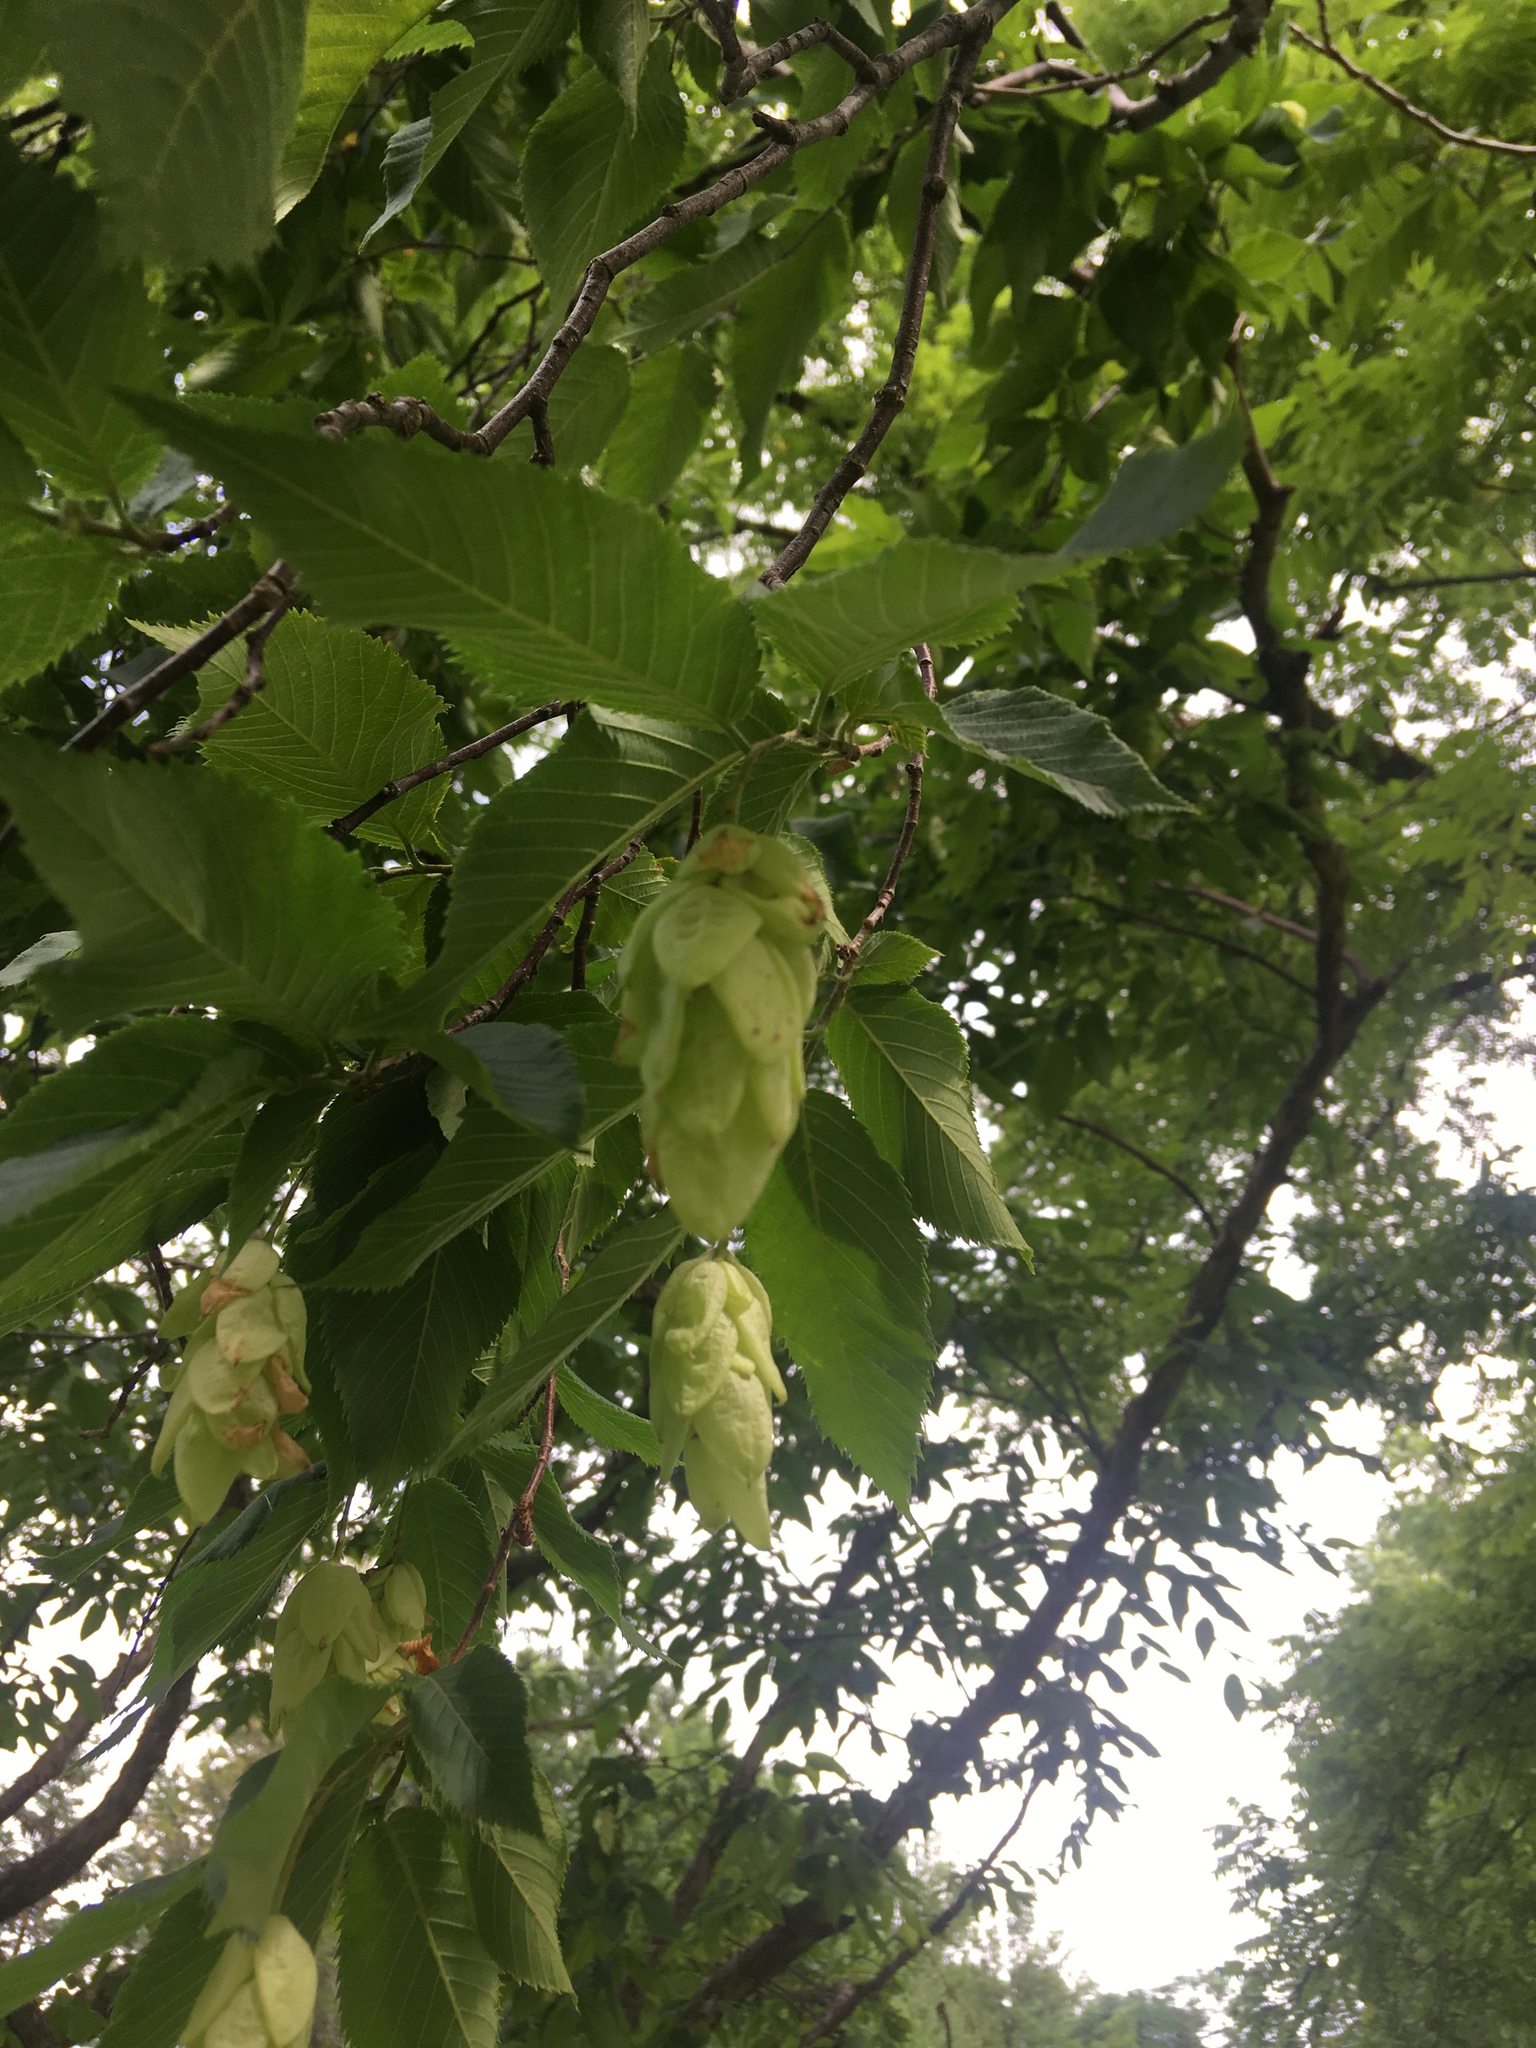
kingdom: Plantae
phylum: Tracheophyta
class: Magnoliopsida
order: Fagales
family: Betulaceae
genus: Ostrya
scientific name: Ostrya virginiana
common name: Ironwood
